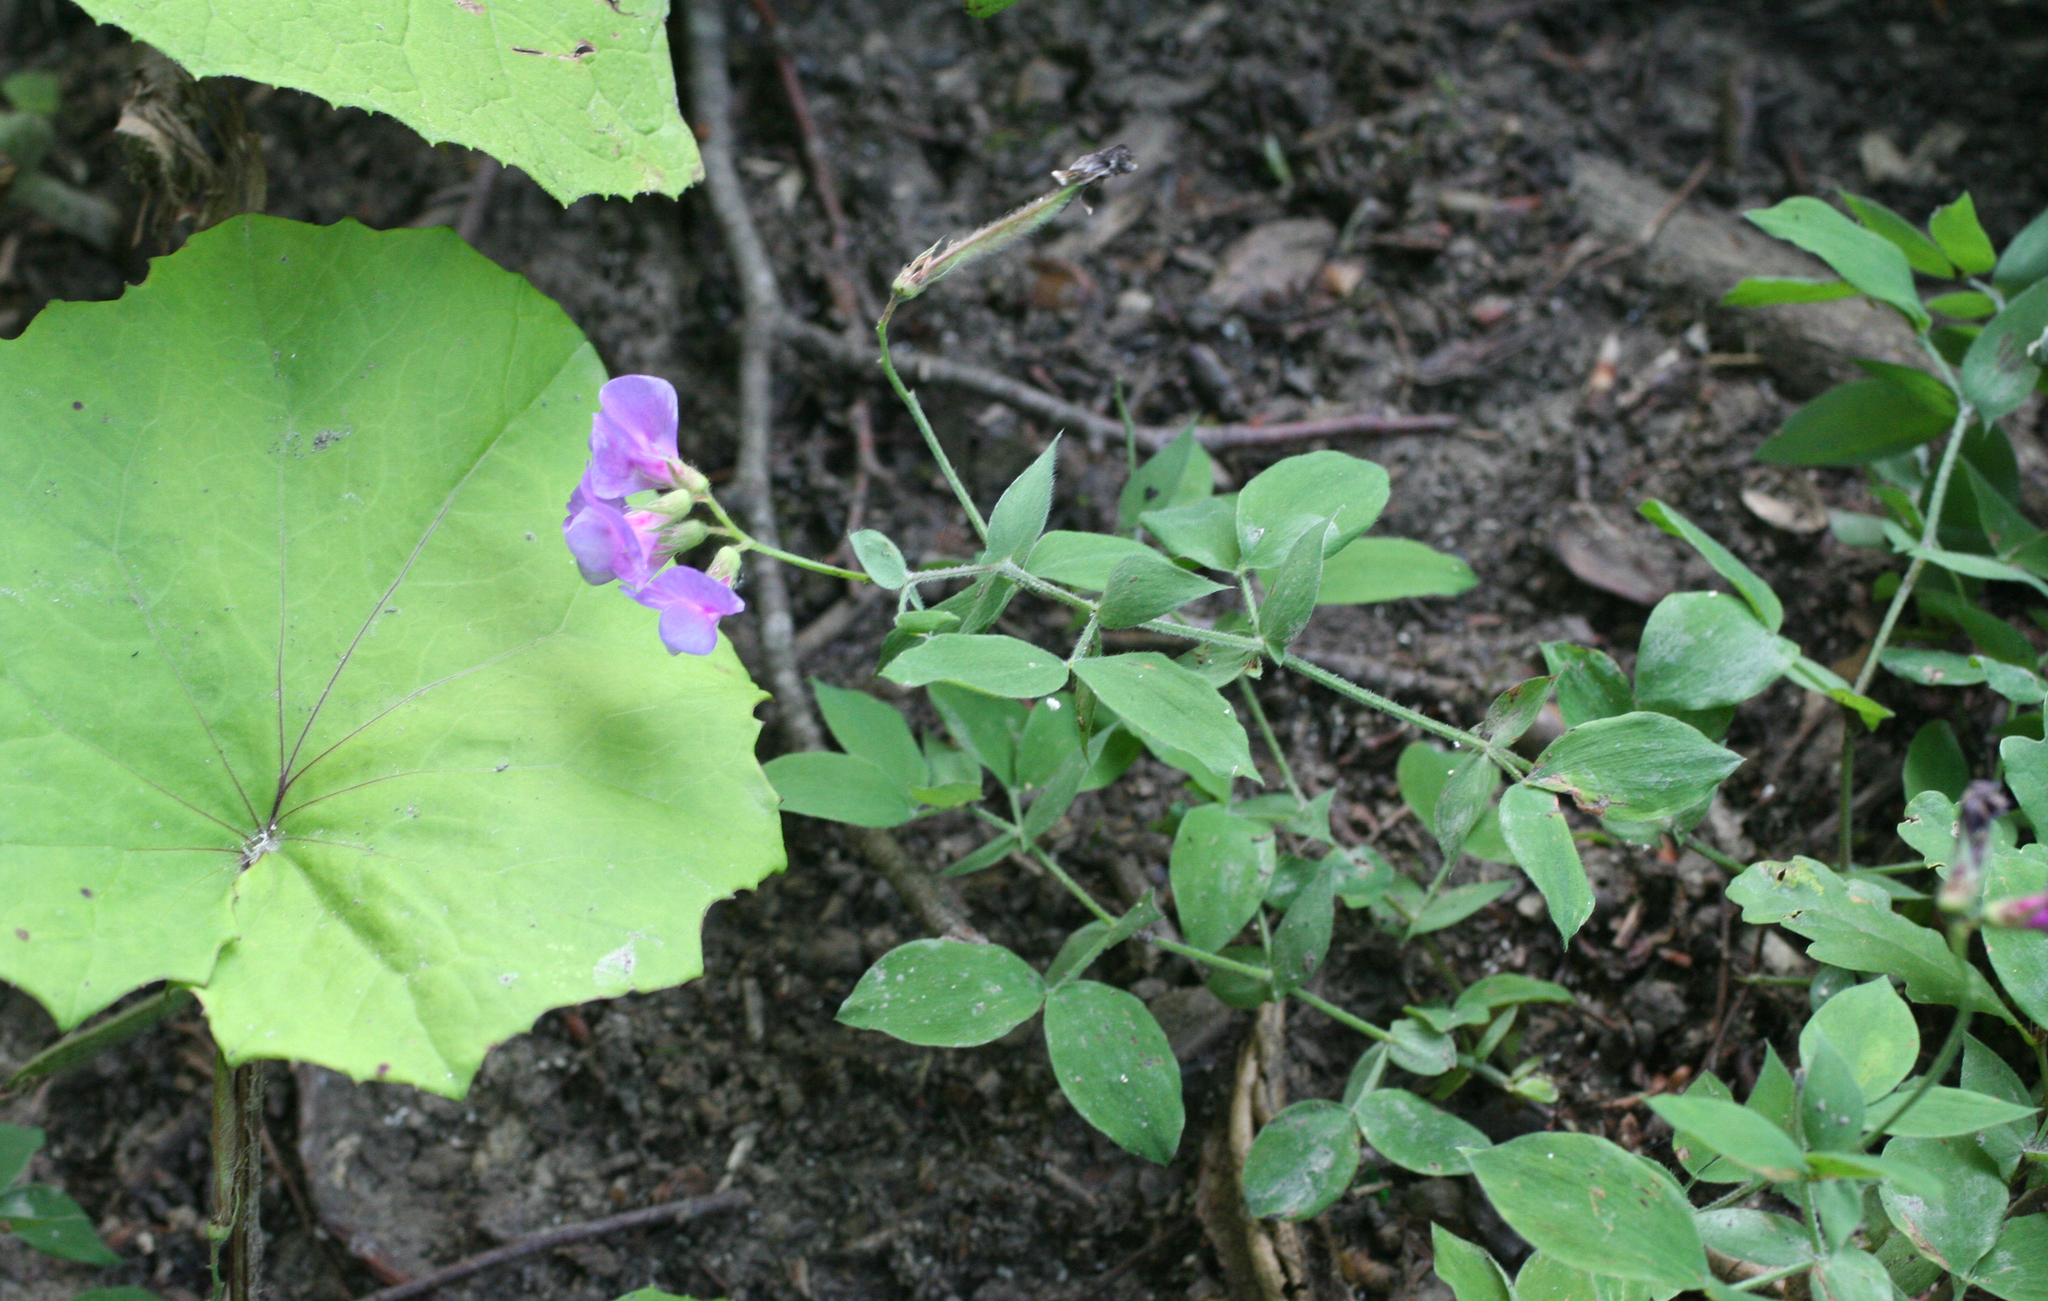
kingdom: Plantae
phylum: Tracheophyta
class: Magnoliopsida
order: Fabales
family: Fabaceae
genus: Lathyrus
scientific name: Lathyrus laxiflorus
